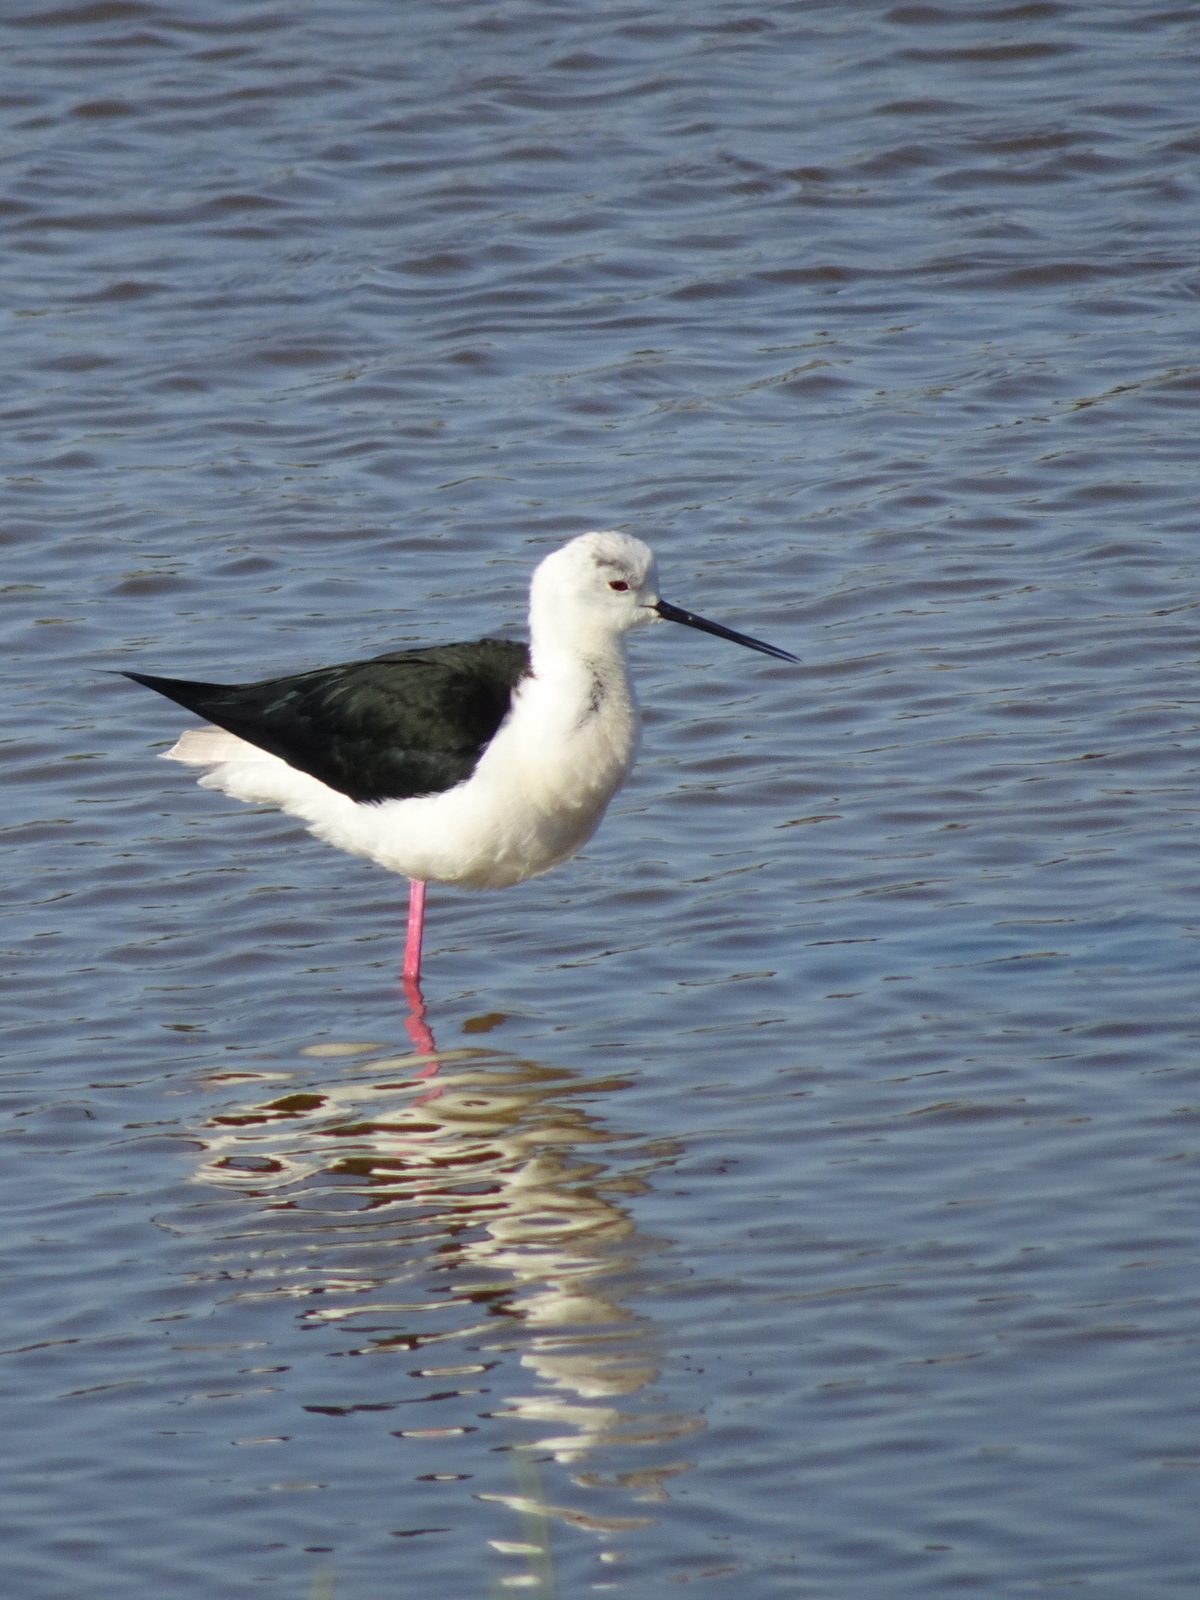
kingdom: Animalia
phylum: Chordata
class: Aves
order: Charadriiformes
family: Recurvirostridae
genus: Himantopus
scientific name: Himantopus himantopus
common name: Black-winged stilt
